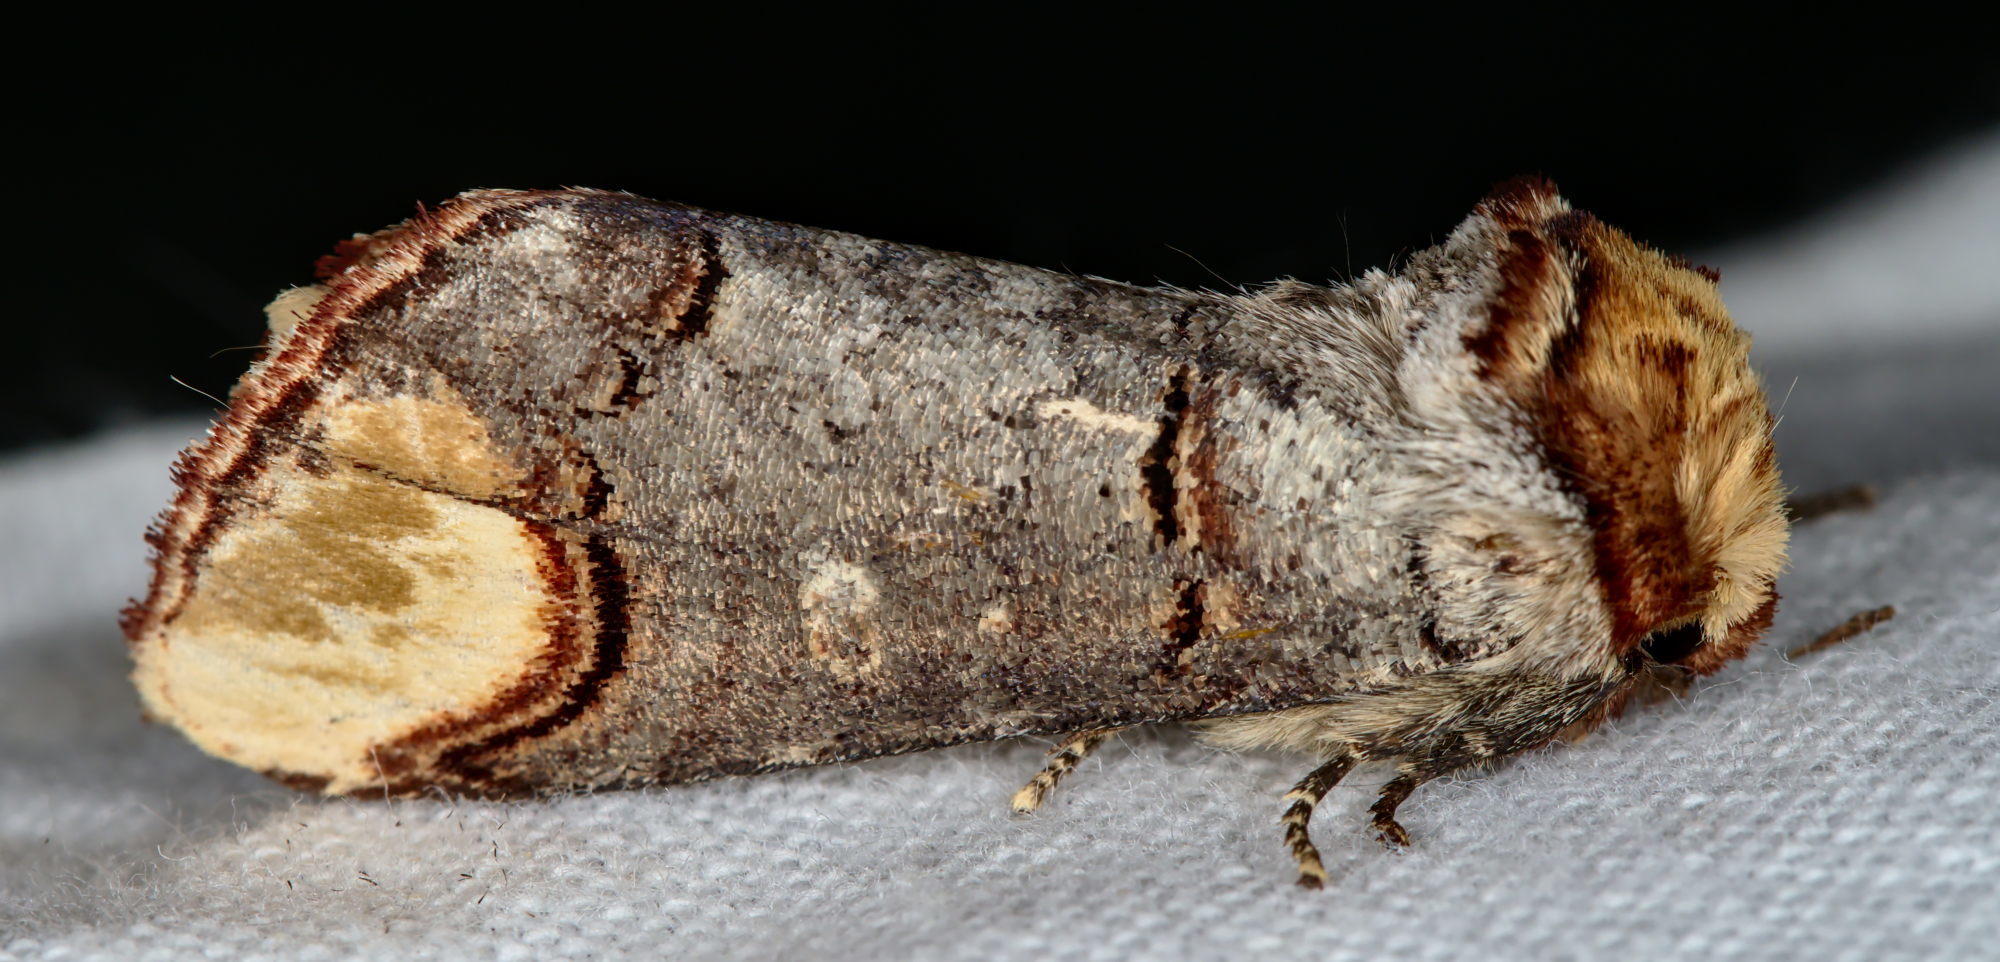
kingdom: Animalia
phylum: Arthropoda
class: Insecta
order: Lepidoptera
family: Notodontidae
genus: Phalera
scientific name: Phalera bucephala
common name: Buff-tip
